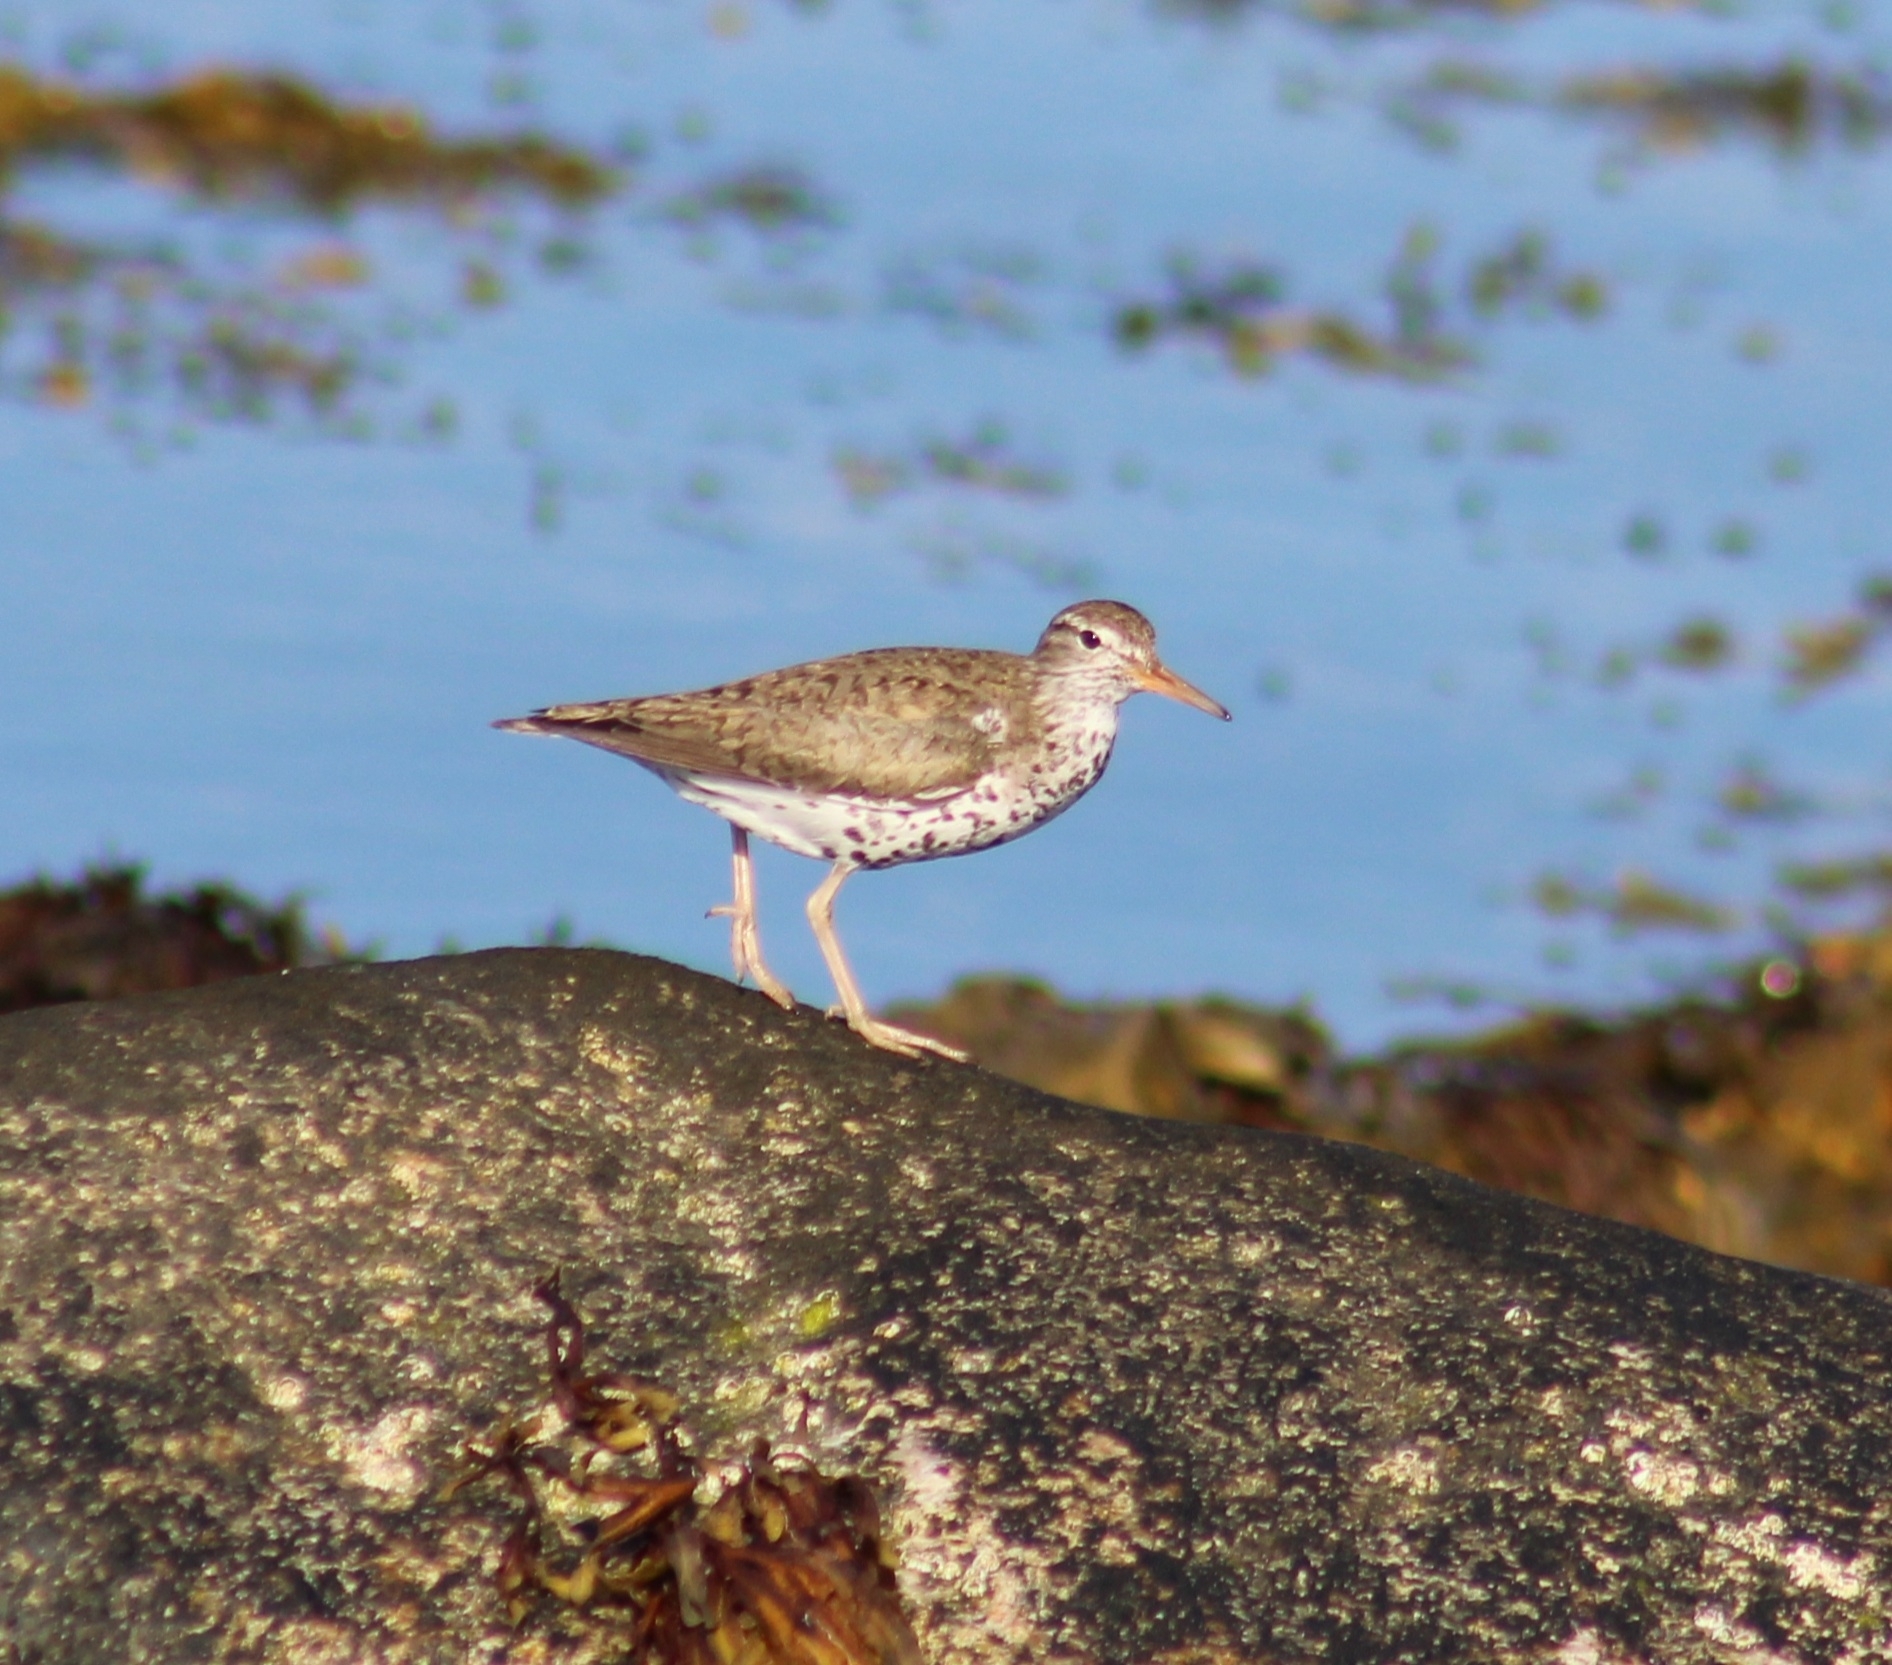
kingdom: Animalia
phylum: Chordata
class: Aves
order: Charadriiformes
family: Scolopacidae
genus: Actitis
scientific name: Actitis macularius
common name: Spotted sandpiper
